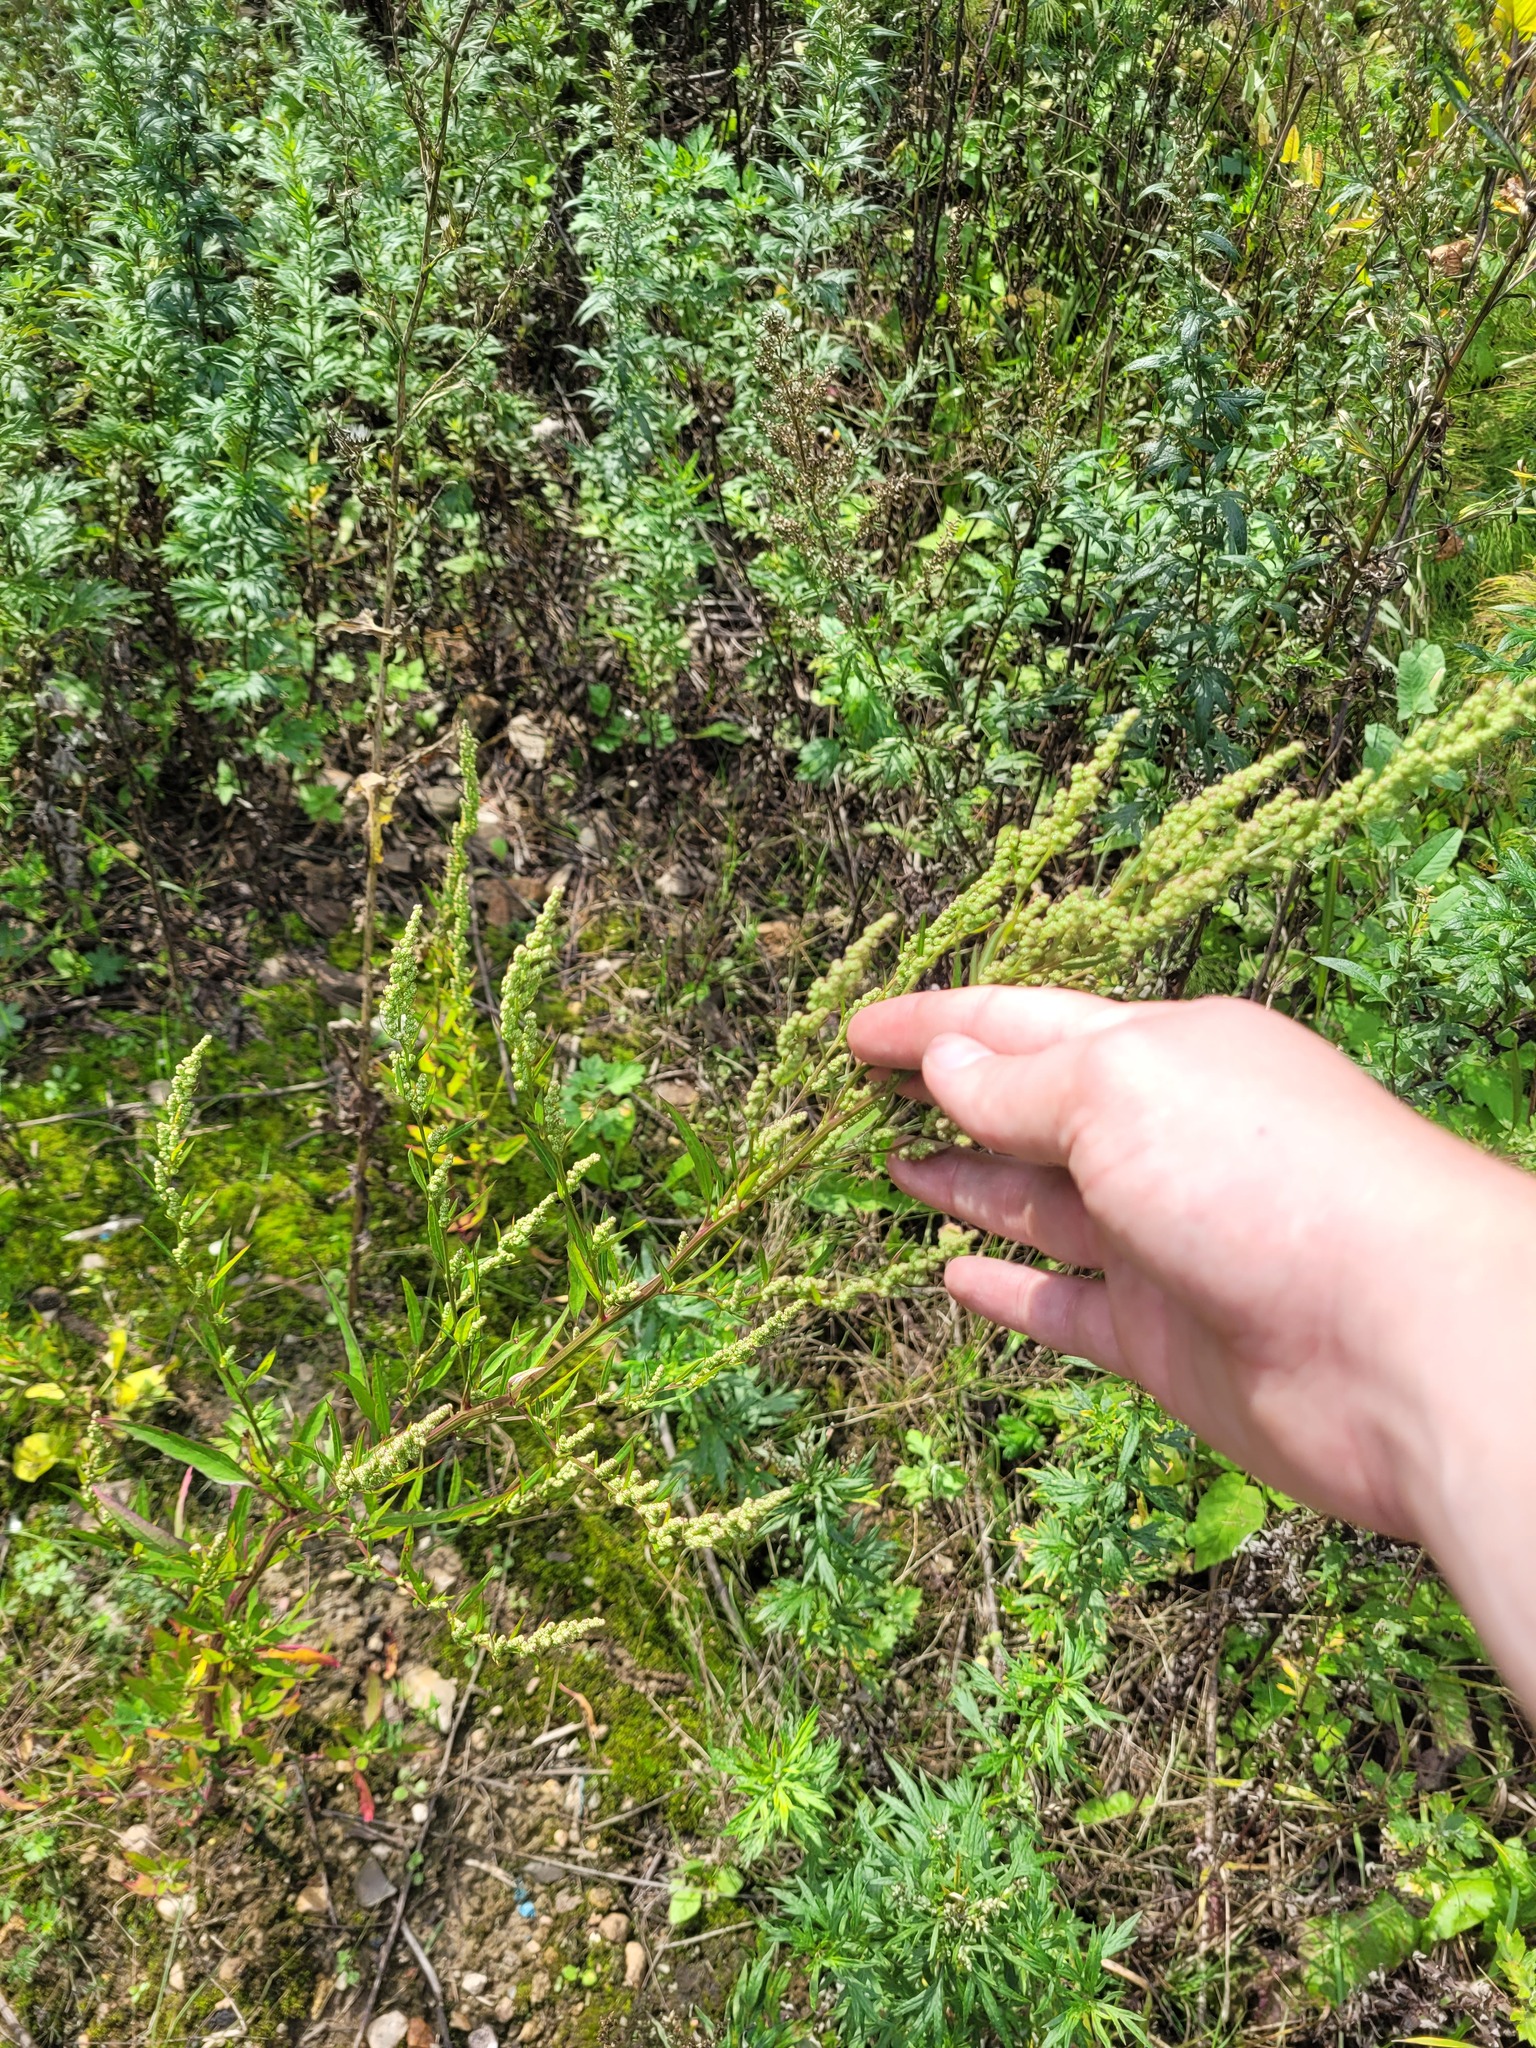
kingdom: Plantae
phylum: Tracheophyta
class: Magnoliopsida
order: Caryophyllales
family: Amaranthaceae
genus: Chenopodium
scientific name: Chenopodium betaceum
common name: Striped goosefoot
